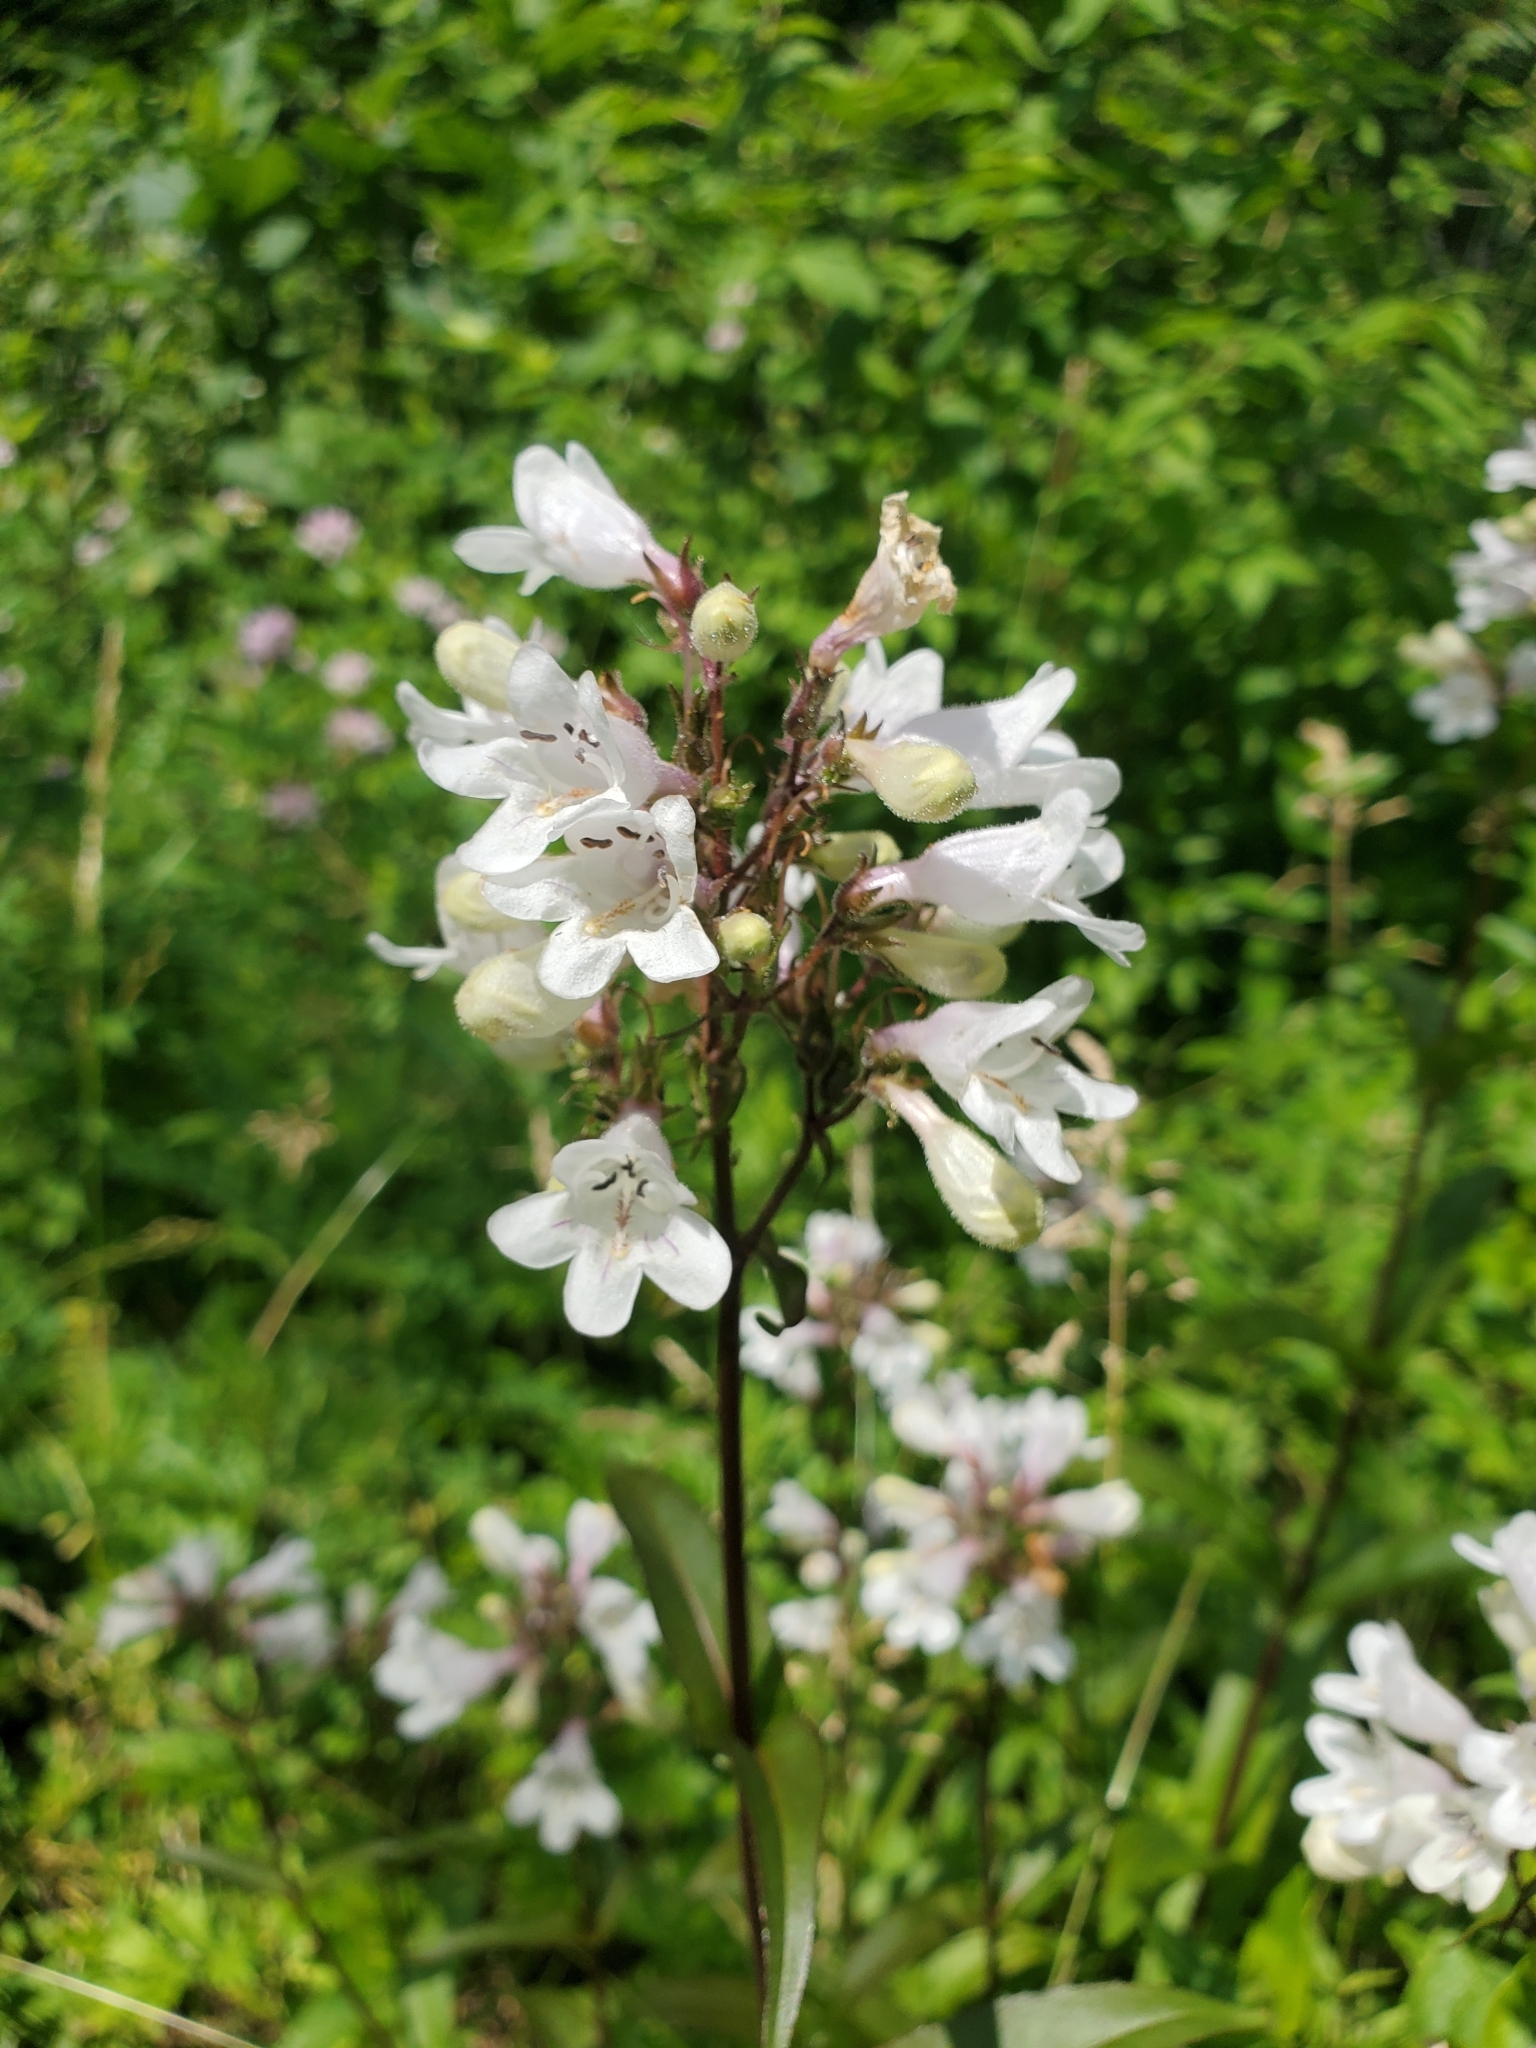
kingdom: Plantae
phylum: Tracheophyta
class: Magnoliopsida
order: Lamiales
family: Plantaginaceae
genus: Penstemon
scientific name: Penstemon digitalis
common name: Foxglove beardtongue
